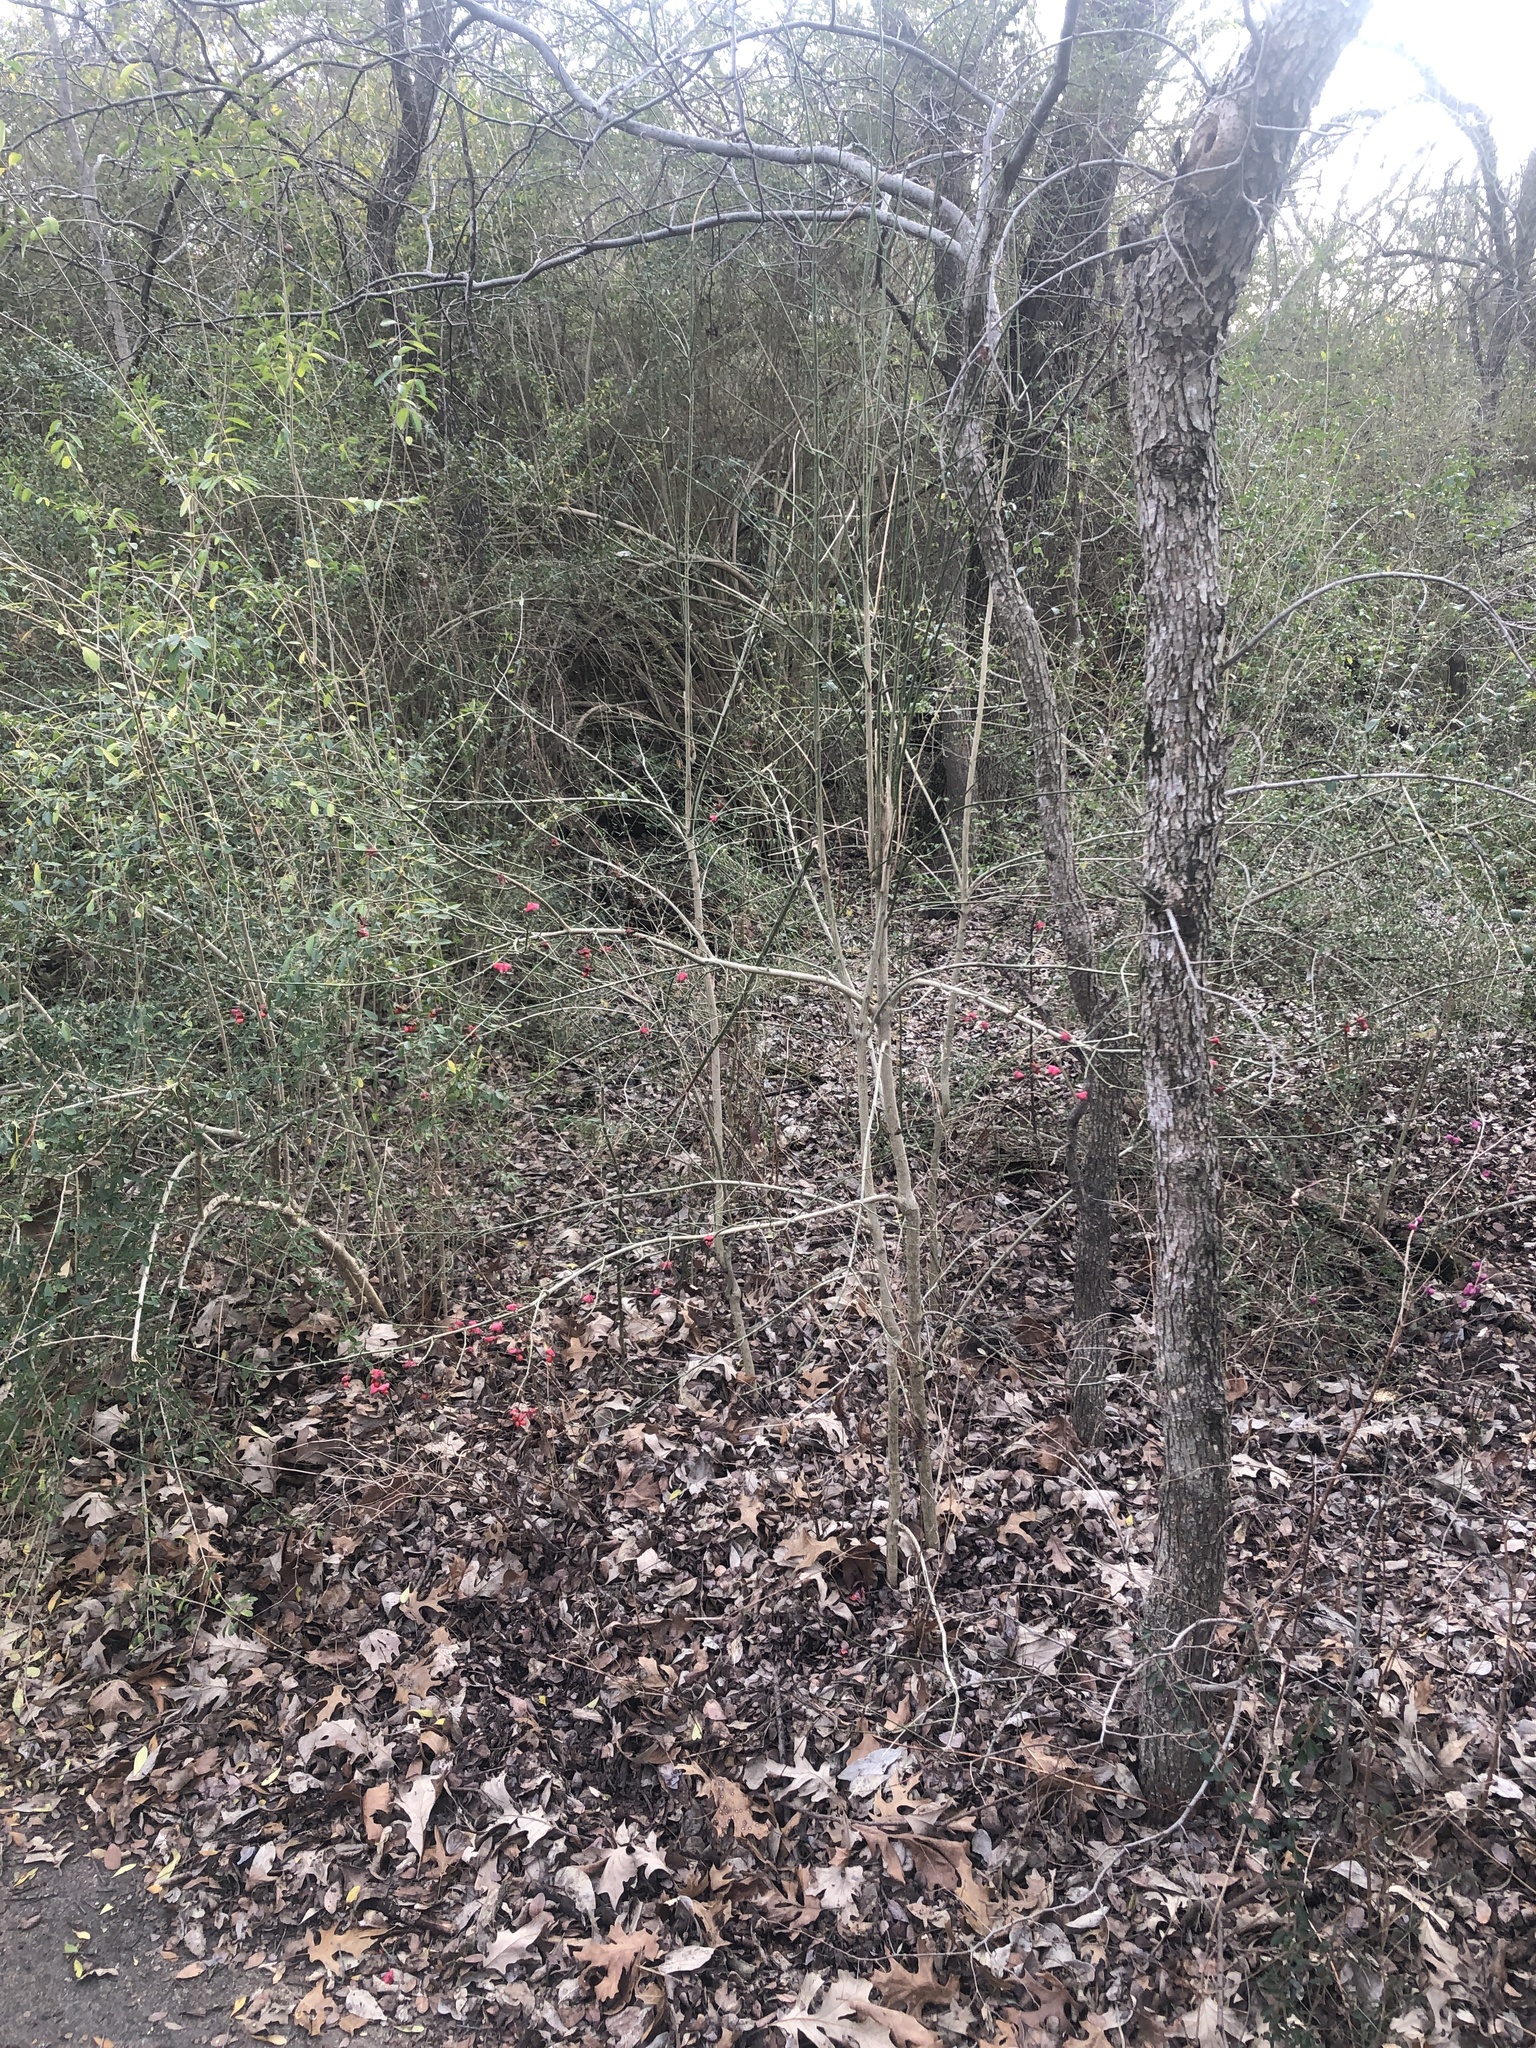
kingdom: Plantae
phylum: Tracheophyta
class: Magnoliopsida
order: Celastrales
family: Celastraceae
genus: Euonymus
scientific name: Euonymus atropurpureus
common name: Eastern wahoo
